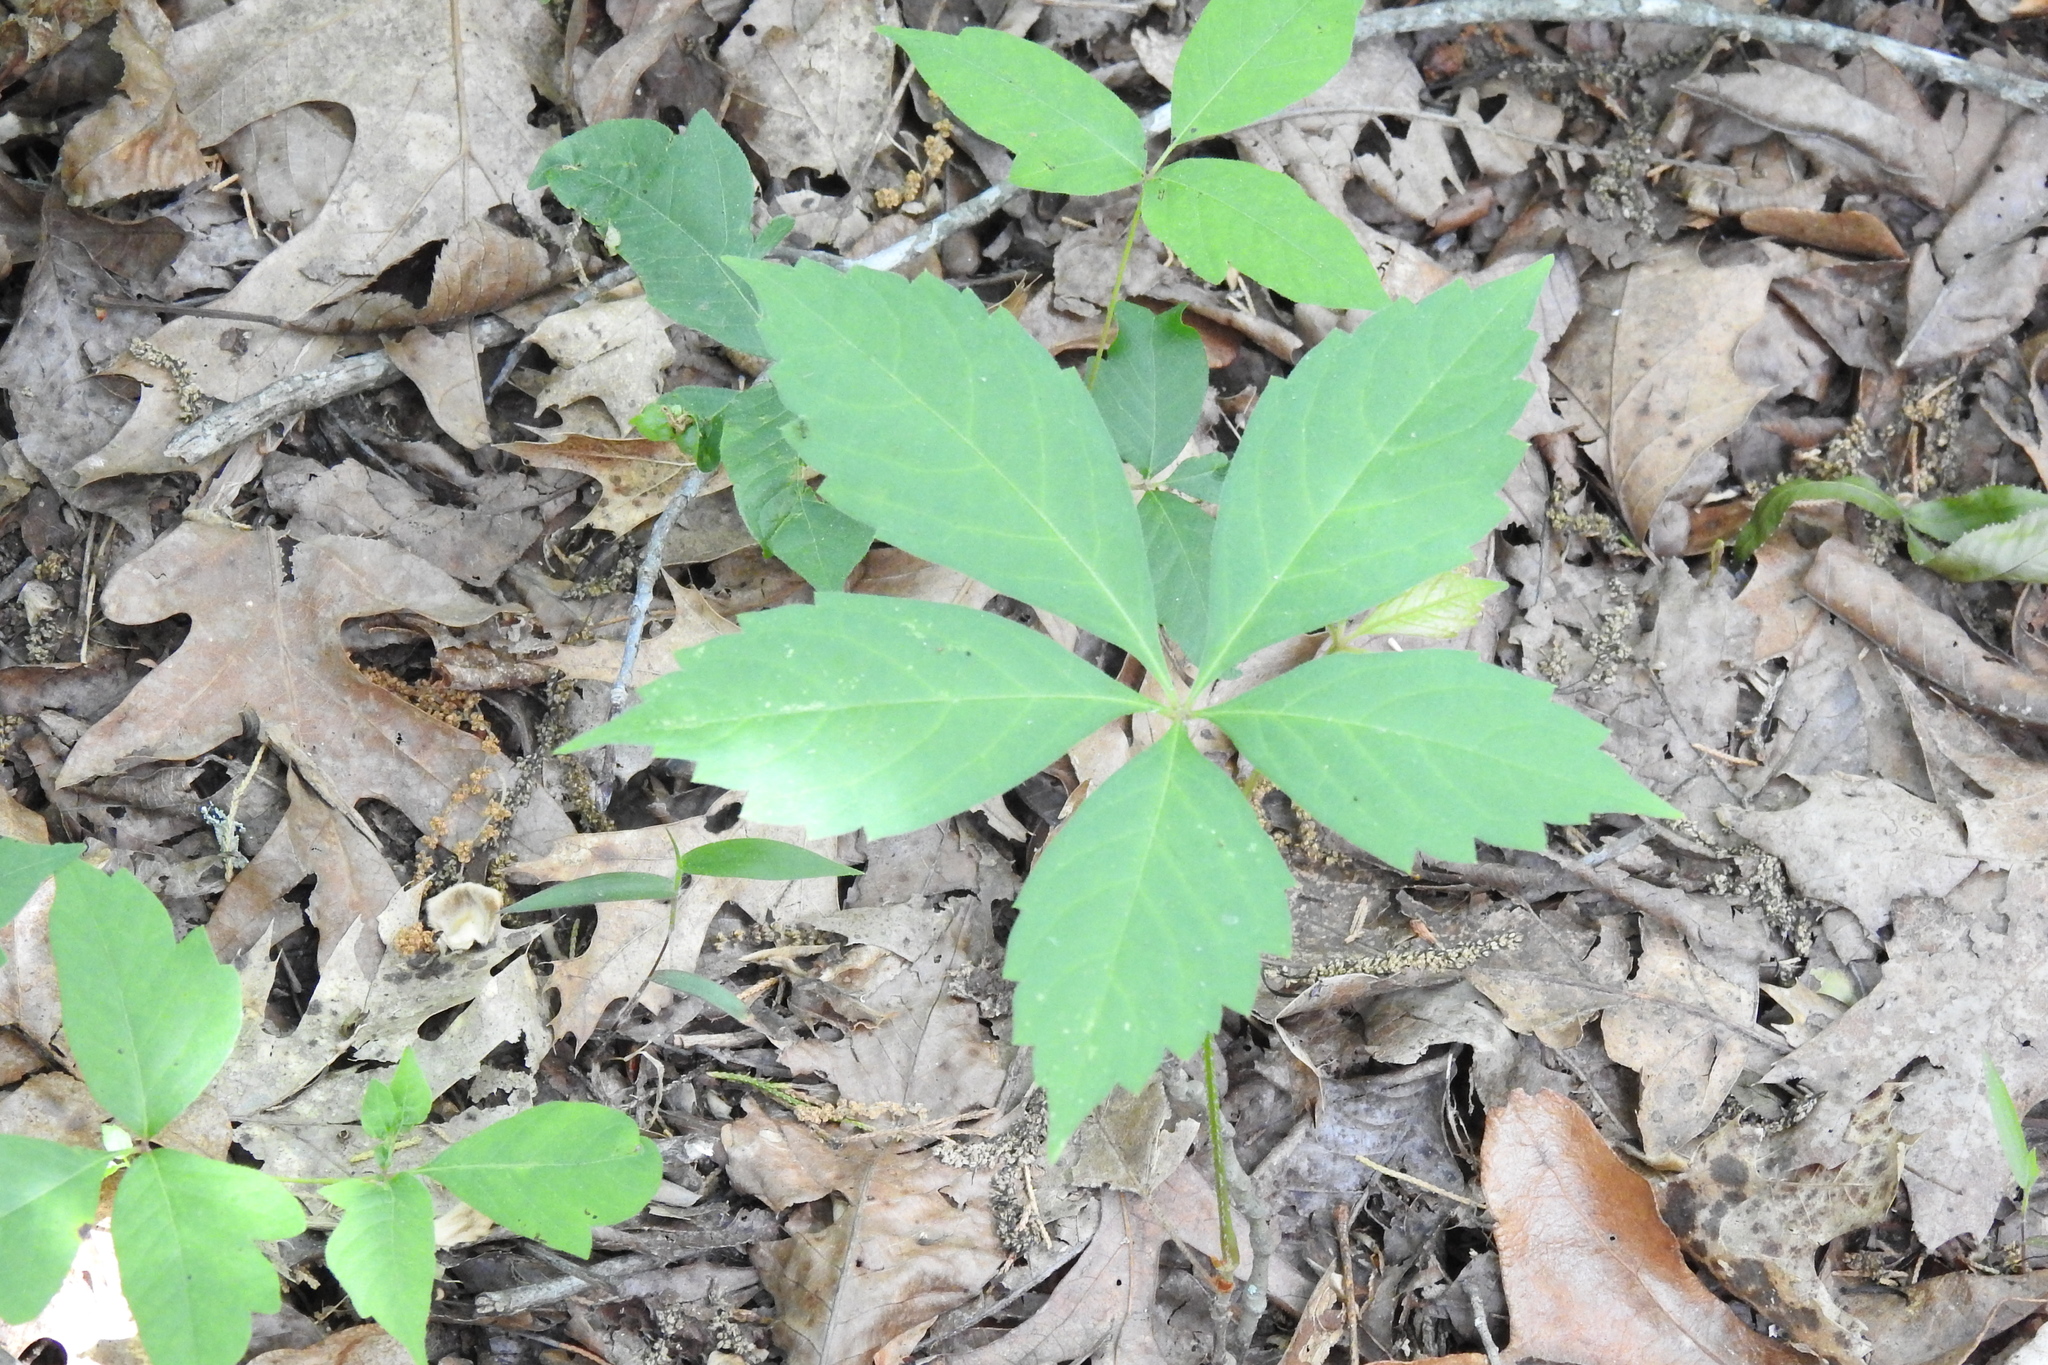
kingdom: Plantae
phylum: Tracheophyta
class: Magnoliopsida
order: Vitales
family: Vitaceae
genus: Parthenocissus
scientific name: Parthenocissus quinquefolia
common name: Virginia-creeper
